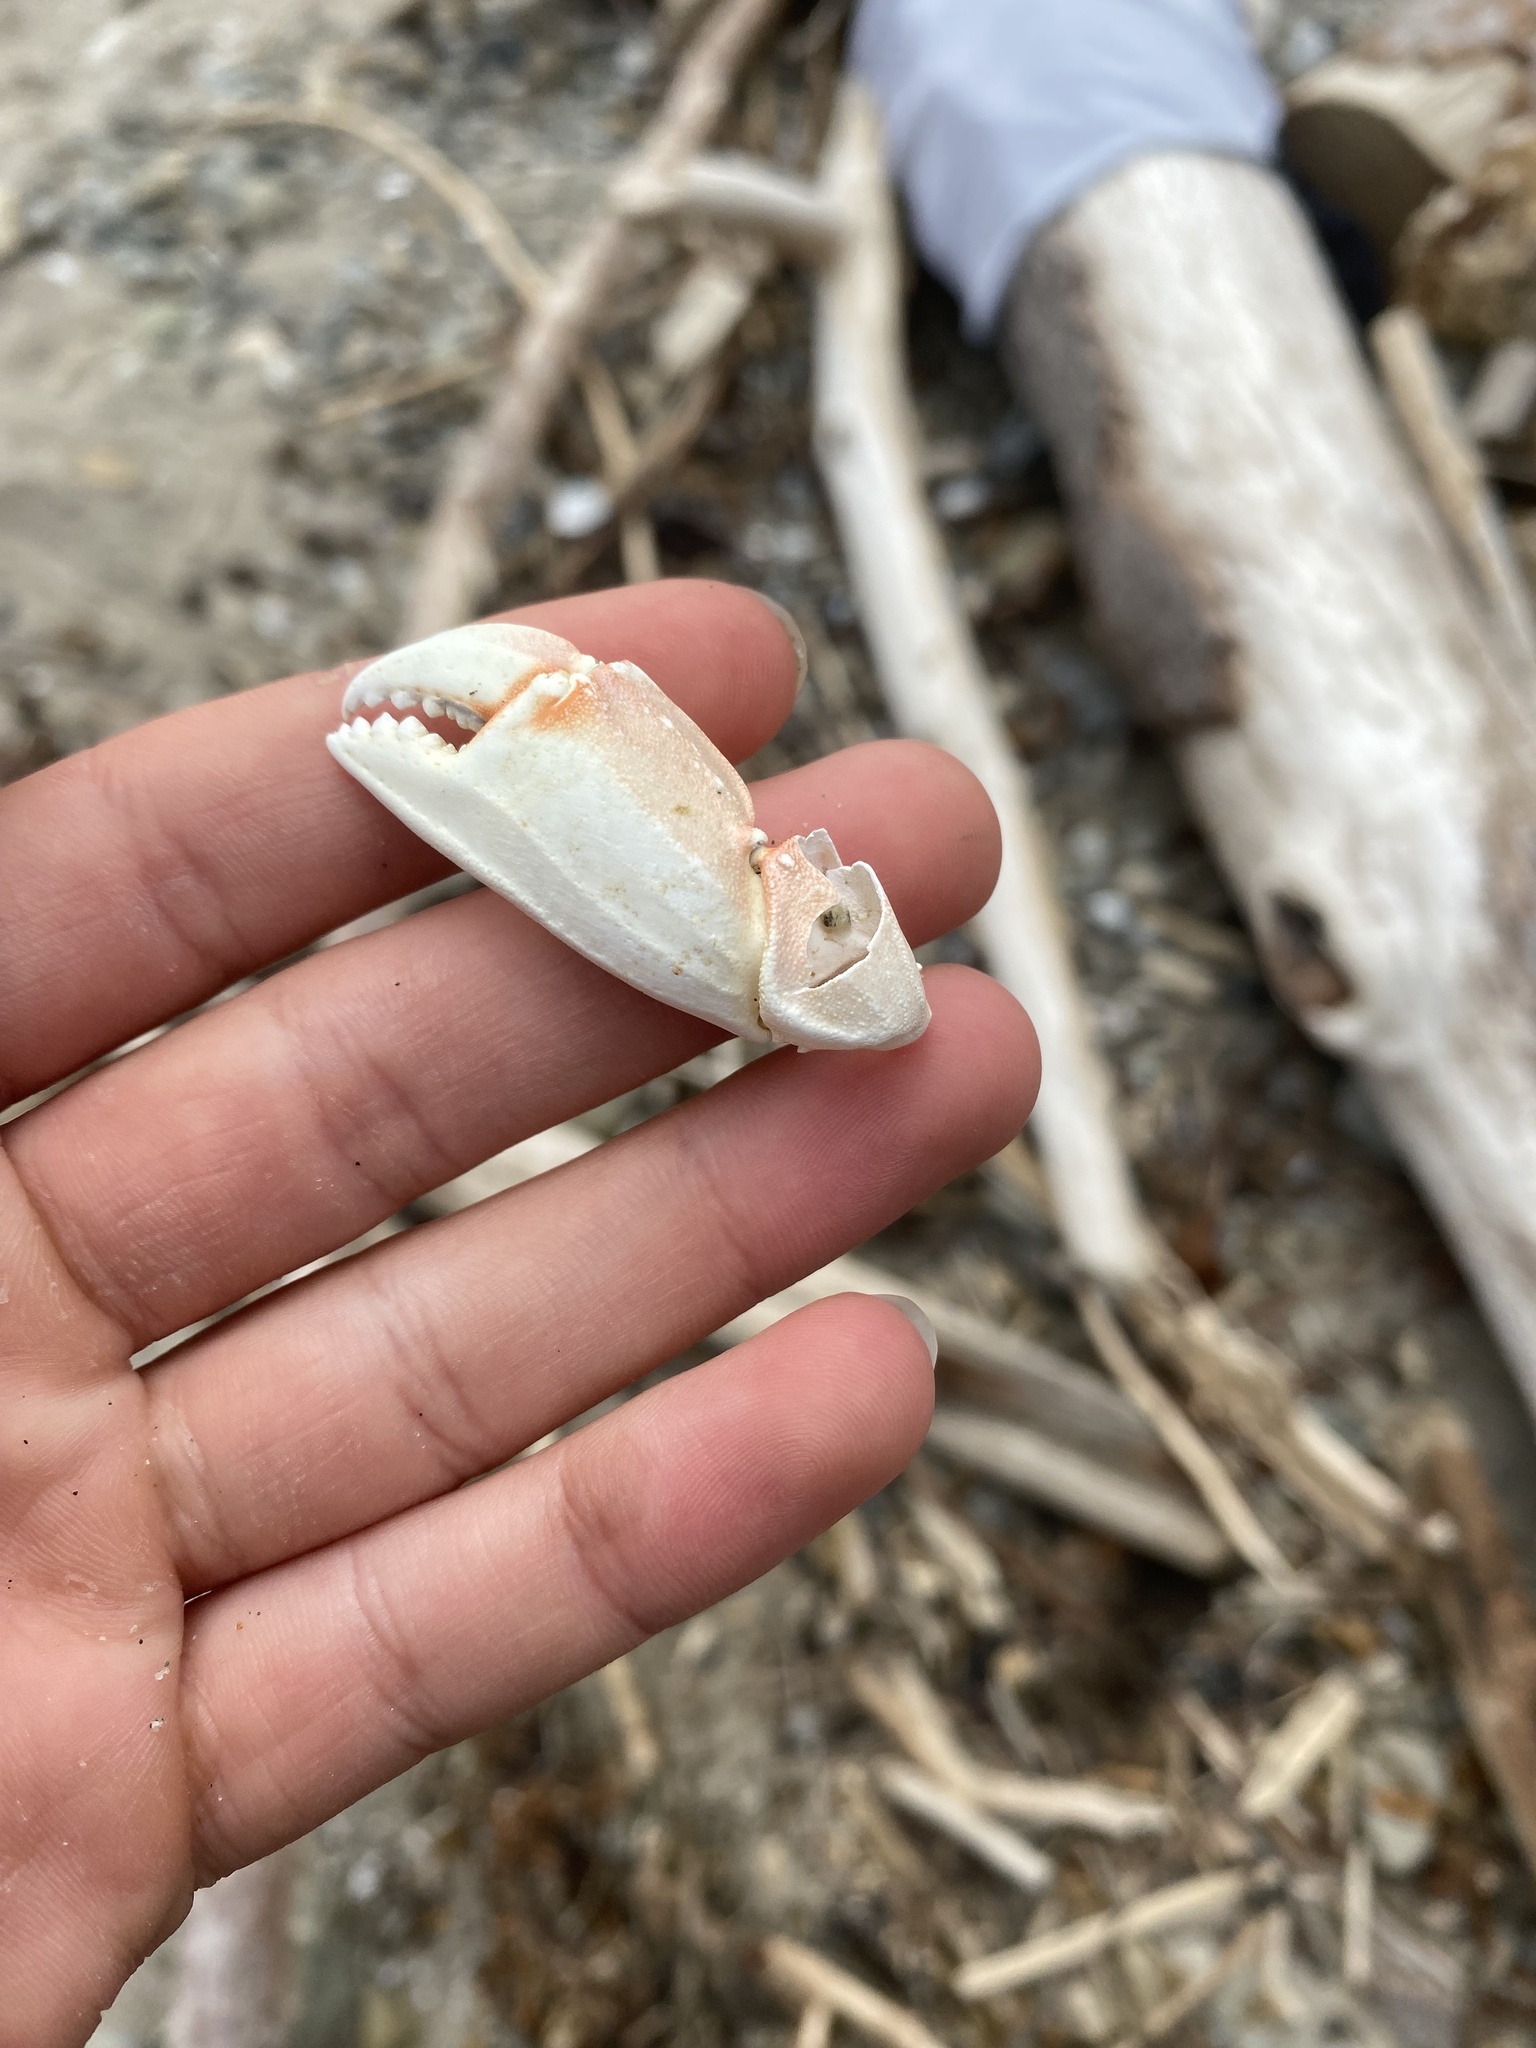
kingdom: Animalia
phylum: Arthropoda
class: Malacostraca
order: Decapoda
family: Cancridae
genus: Metacarcinus
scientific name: Metacarcinus gracilis
